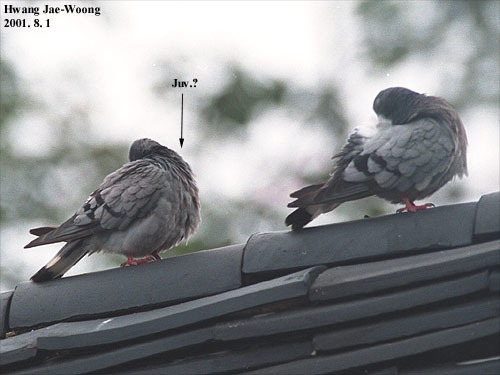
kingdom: Animalia
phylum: Chordata
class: Aves
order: Columbiformes
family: Columbidae
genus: Columba
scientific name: Columba rupestris
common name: Hill pigeon
